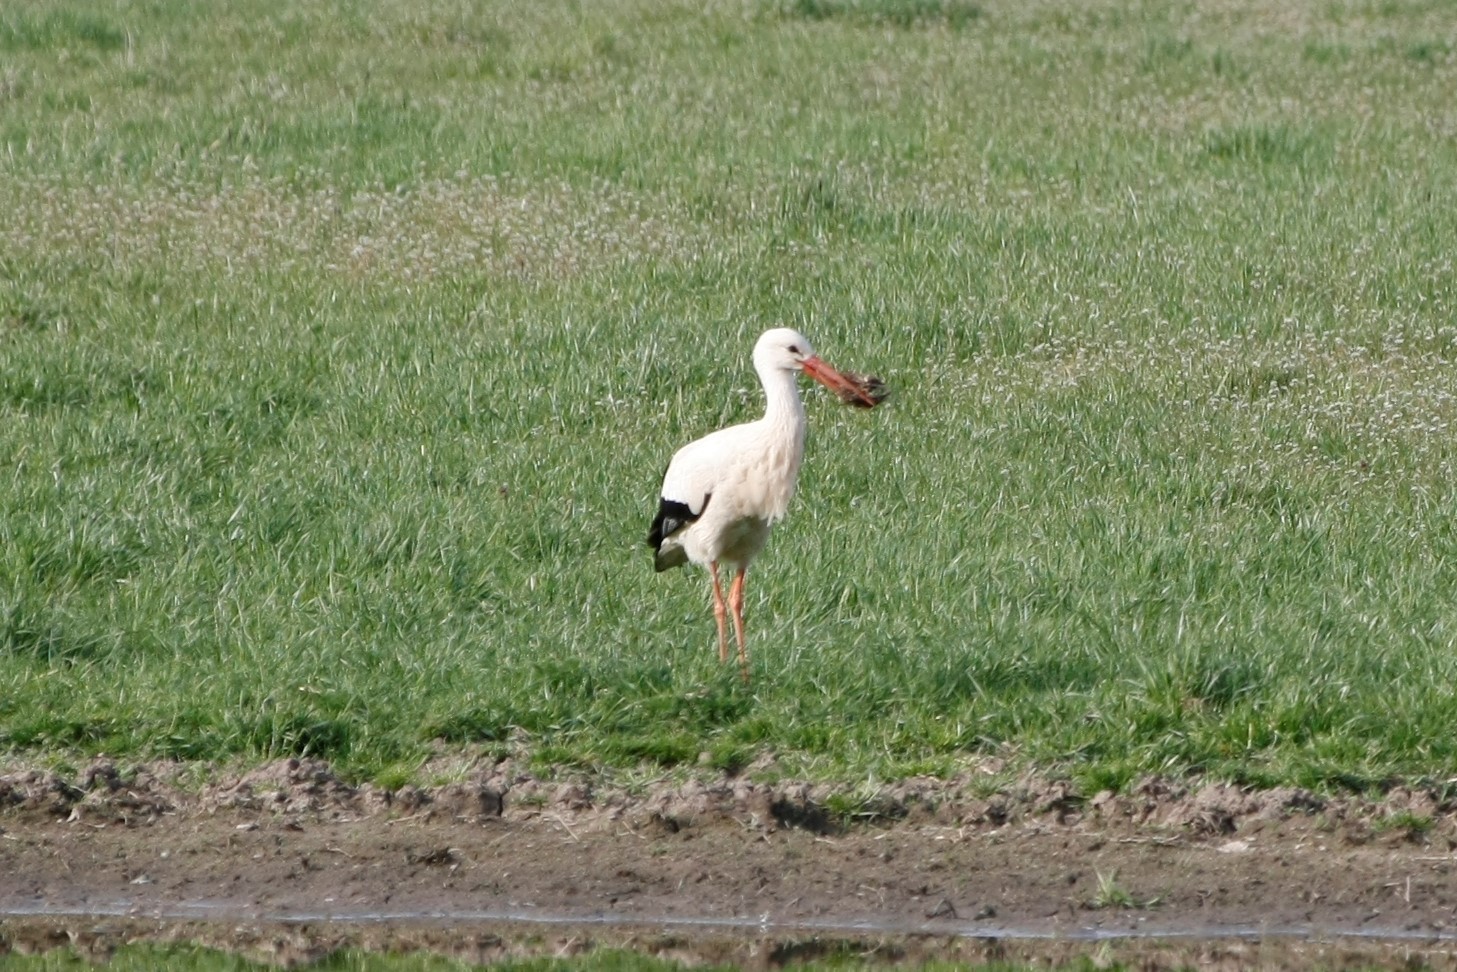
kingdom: Animalia
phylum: Chordata
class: Aves
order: Ciconiiformes
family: Ciconiidae
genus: Ciconia
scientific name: Ciconia ciconia
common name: White stork
